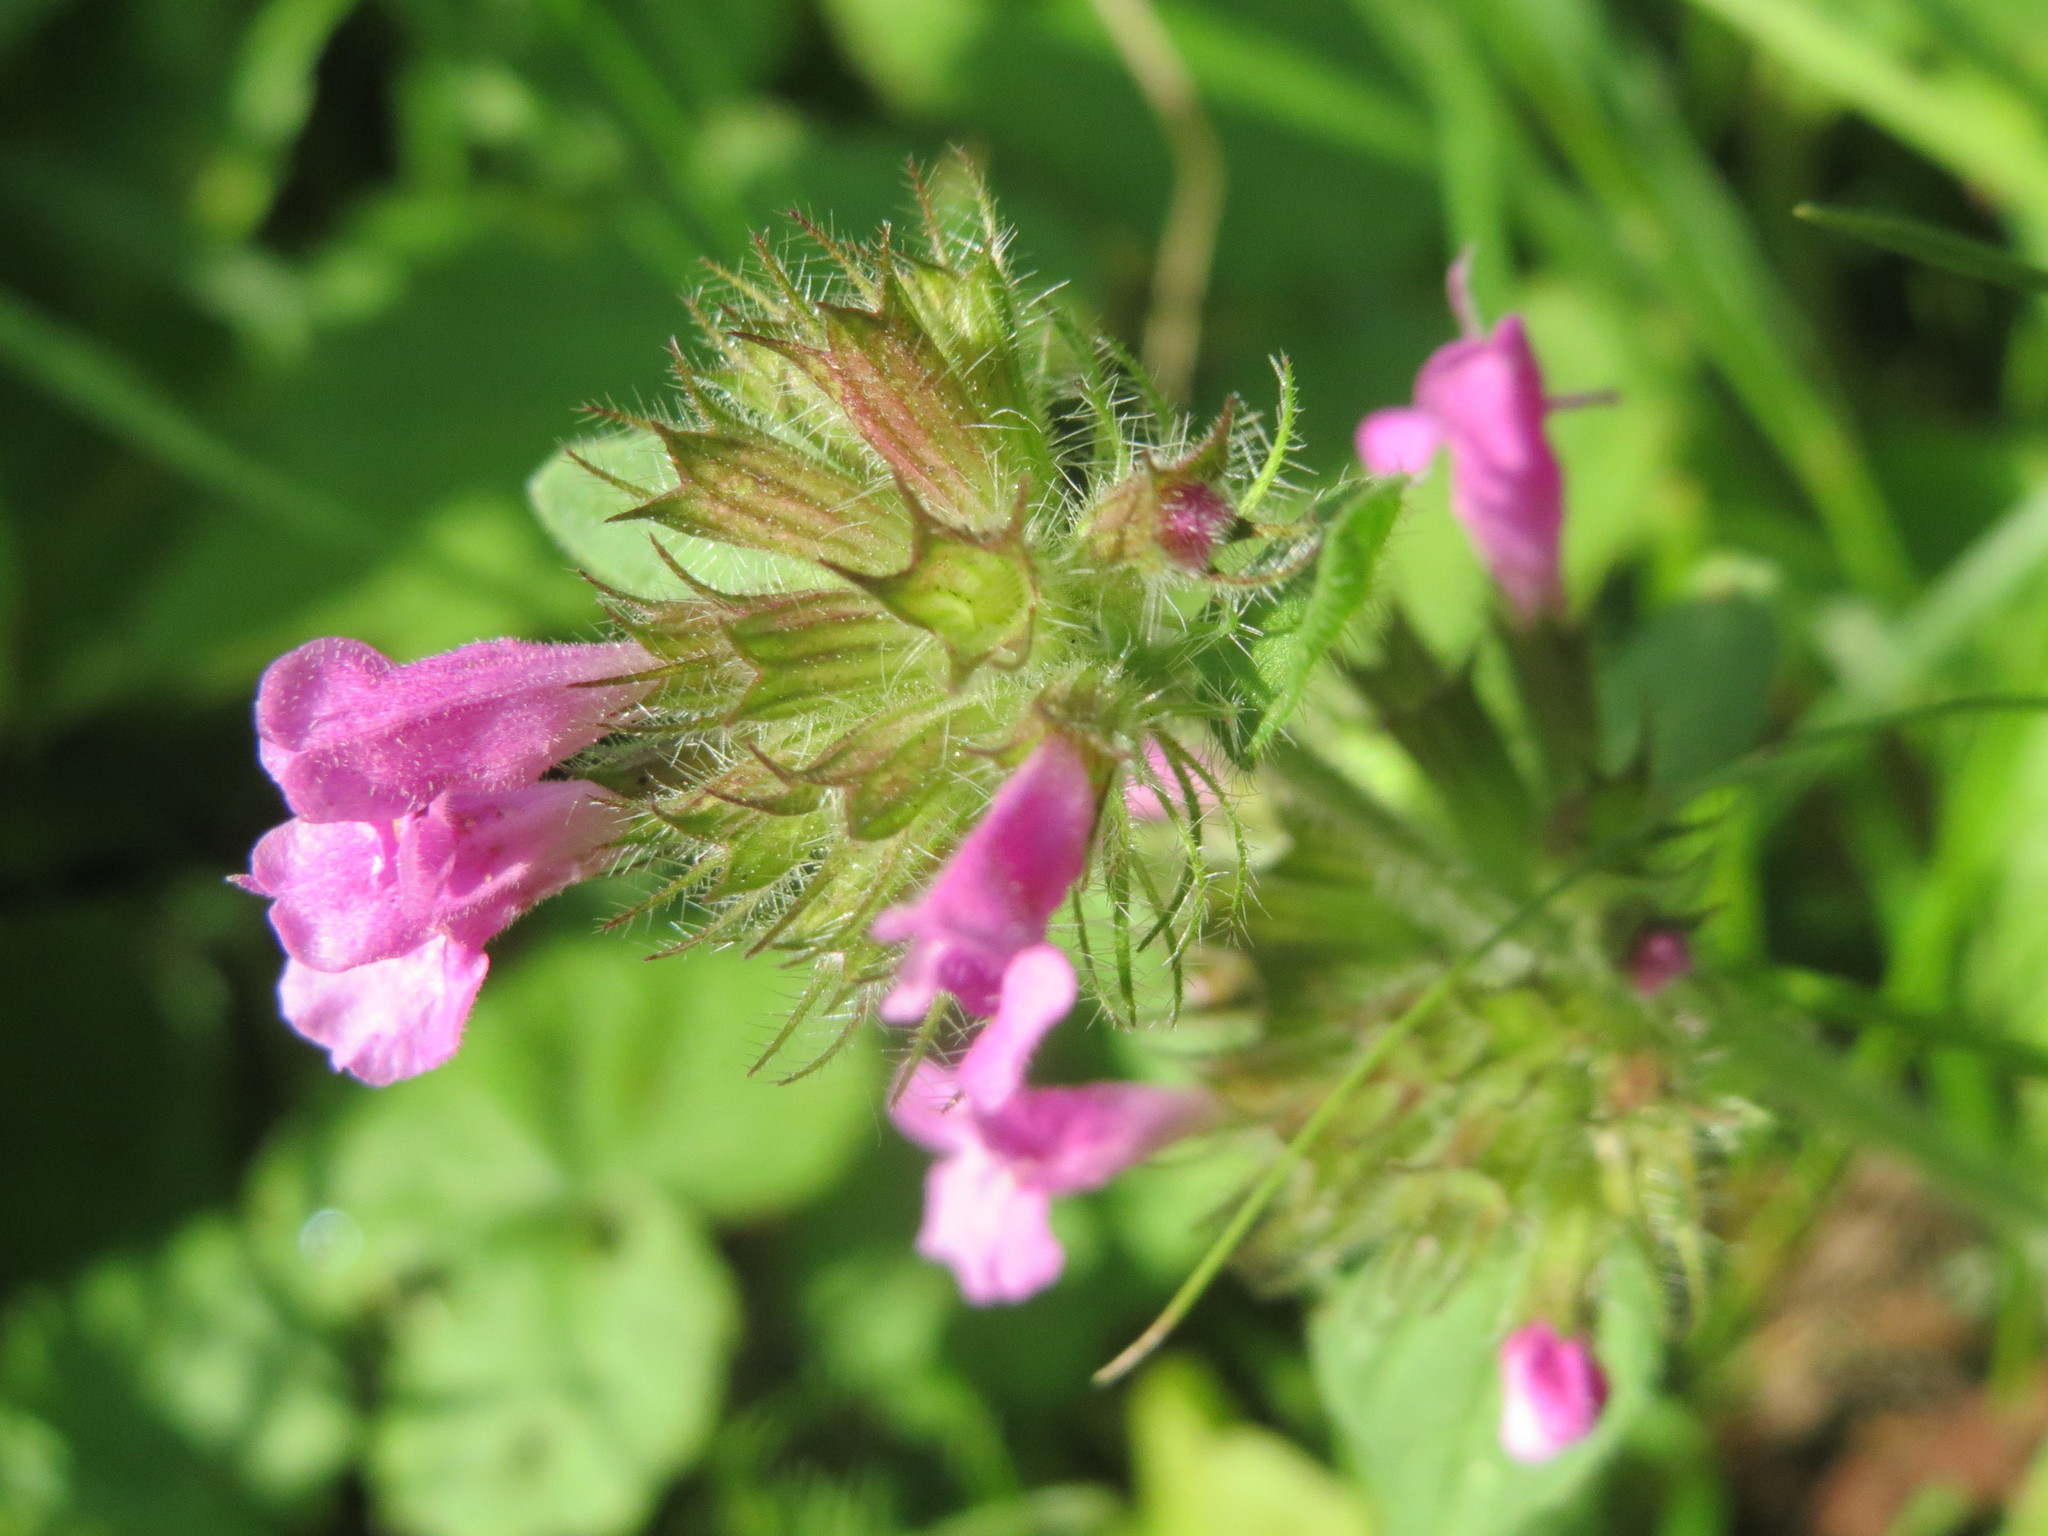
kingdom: Plantae
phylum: Tracheophyta
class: Magnoliopsida
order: Lamiales
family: Lamiaceae
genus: Clinopodium
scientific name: Clinopodium vulgare
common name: Wild basil
